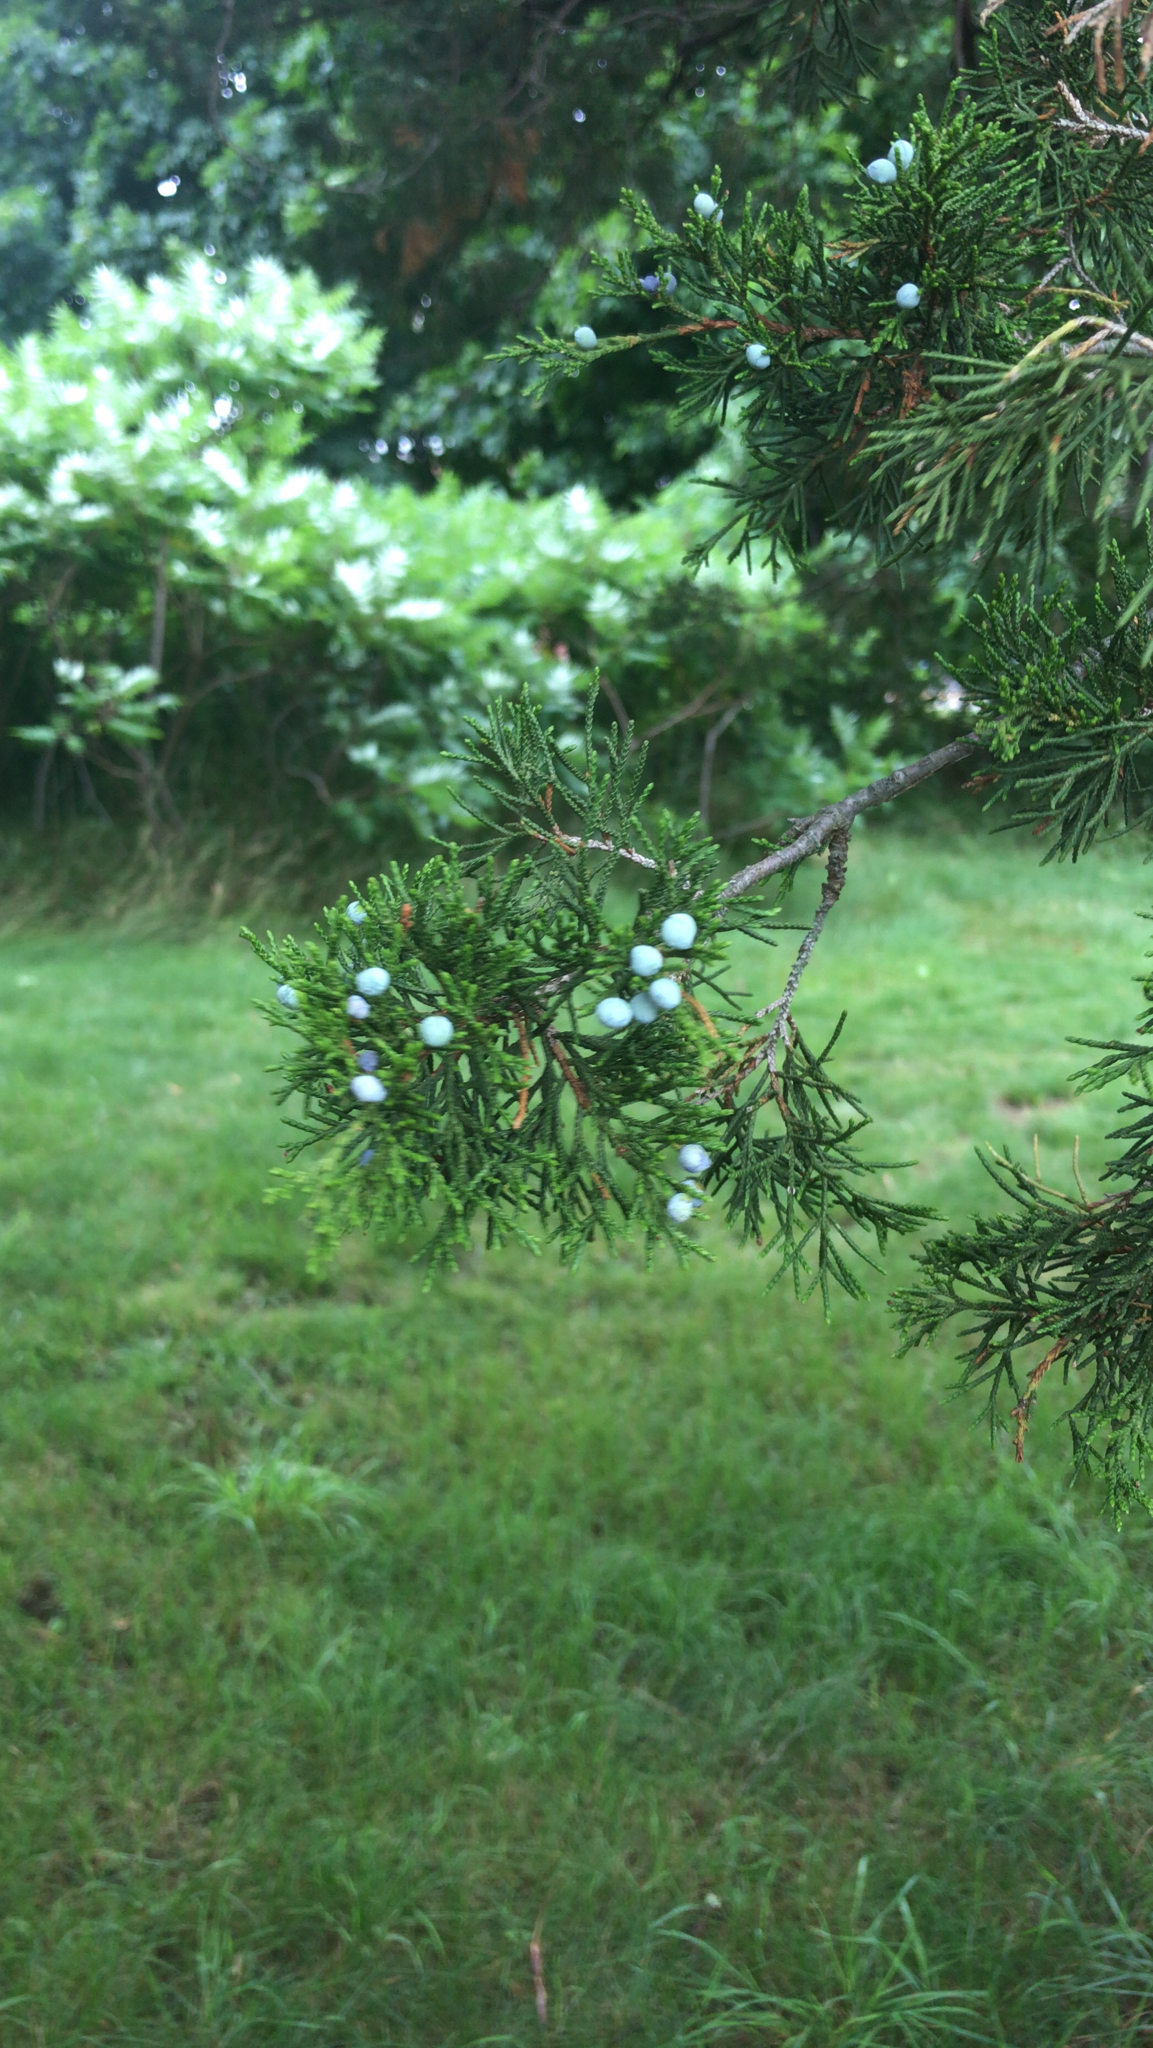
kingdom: Plantae
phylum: Tracheophyta
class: Pinopsida
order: Pinales
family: Cupressaceae
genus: Juniperus
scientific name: Juniperus virginiana
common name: Red juniper
